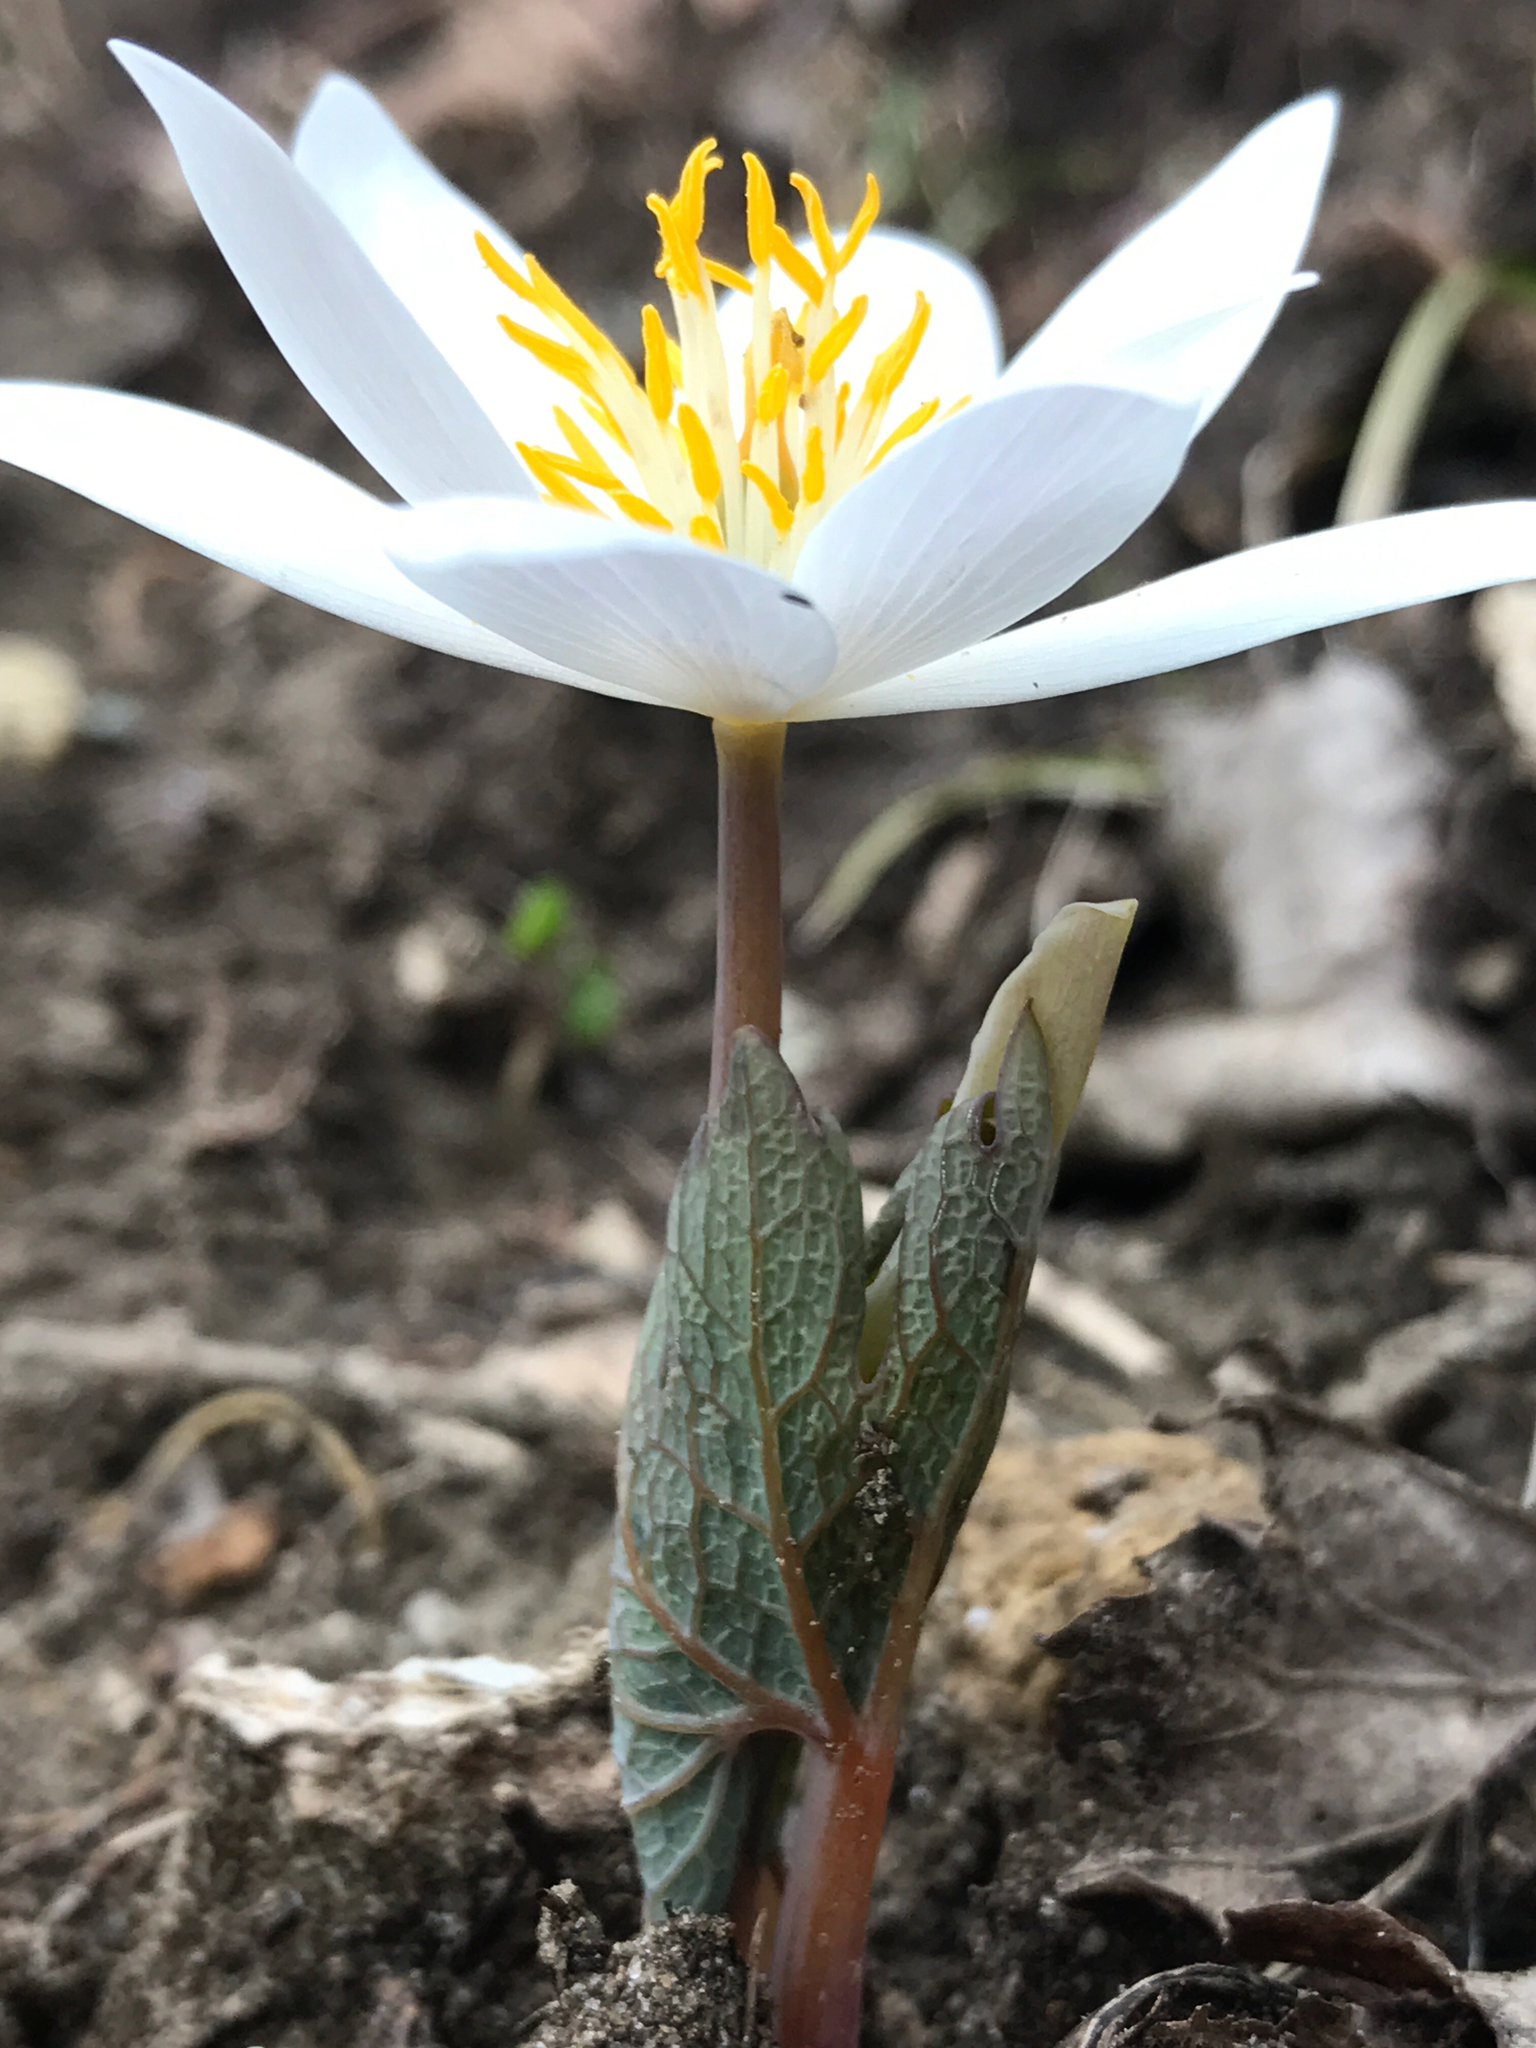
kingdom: Plantae
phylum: Tracheophyta
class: Magnoliopsida
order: Ranunculales
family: Papaveraceae
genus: Sanguinaria
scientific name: Sanguinaria canadensis
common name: Bloodroot
